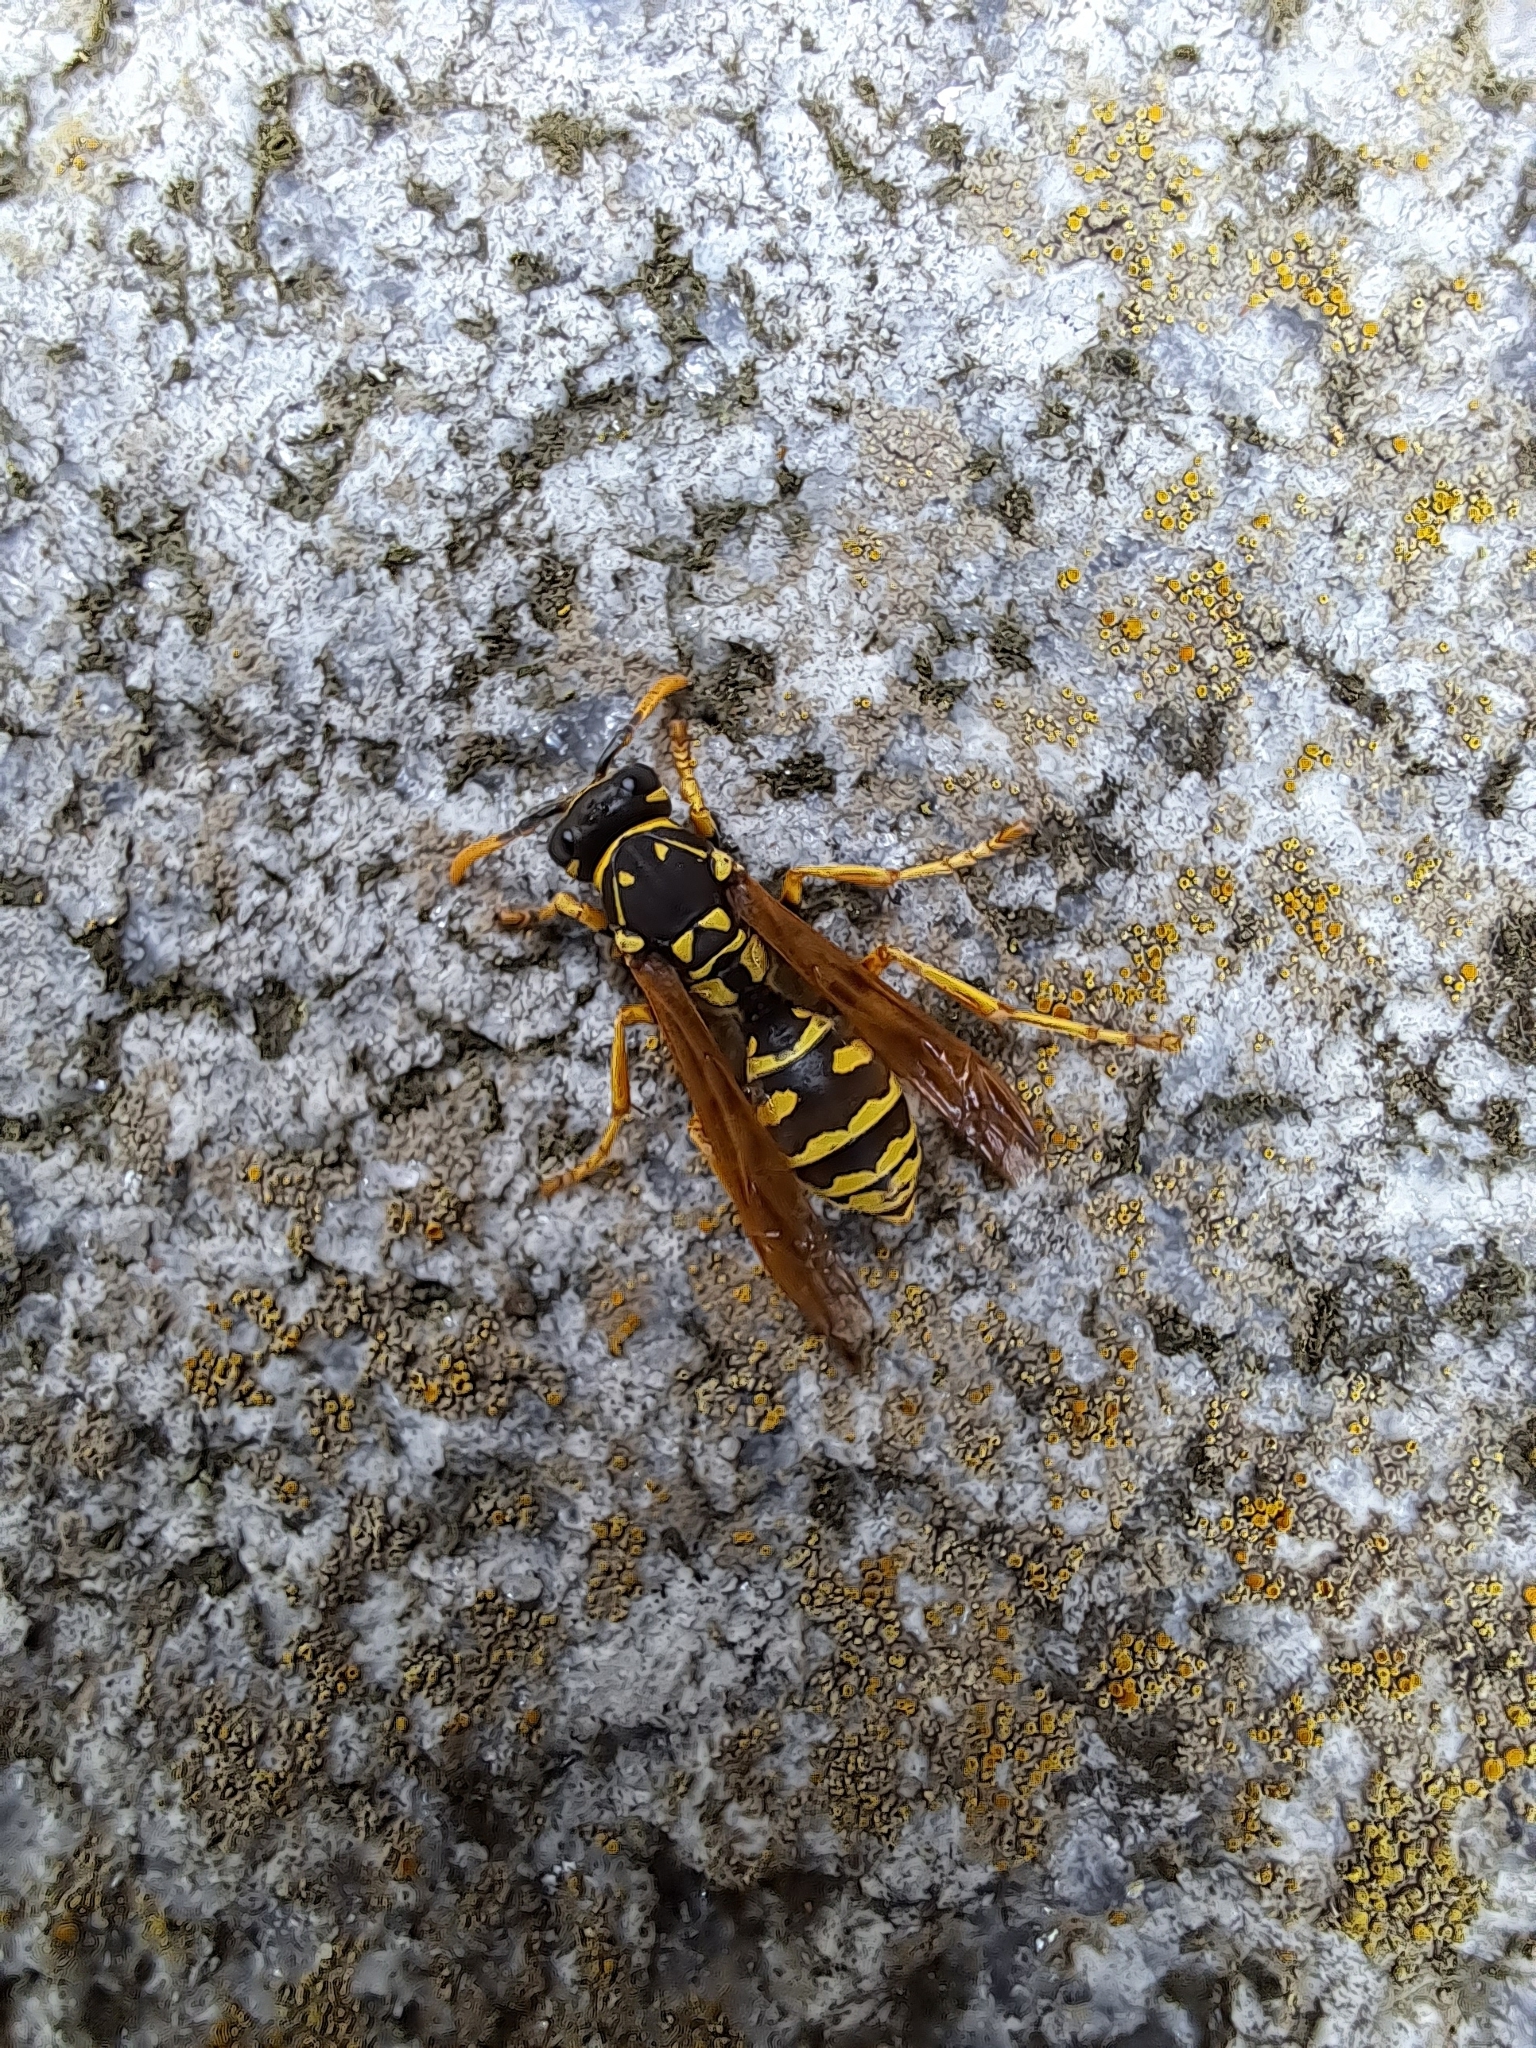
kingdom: Animalia
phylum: Arthropoda
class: Insecta
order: Hymenoptera
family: Eumenidae
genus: Polistes
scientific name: Polistes dominula
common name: Paper wasp
